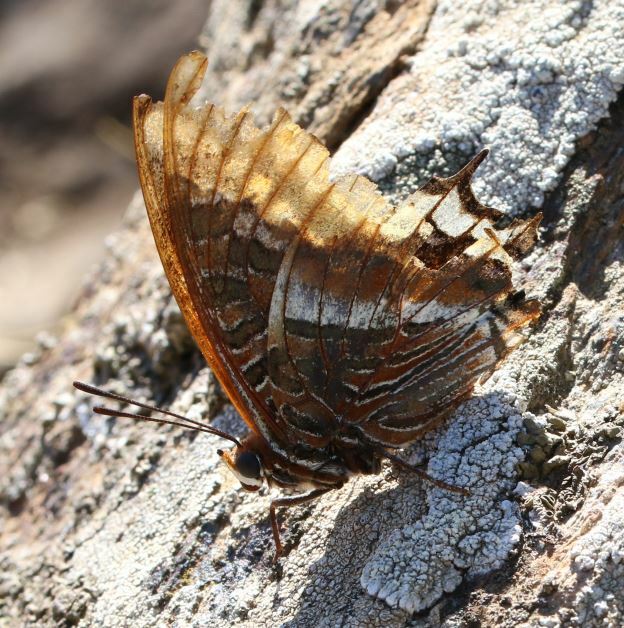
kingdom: Animalia
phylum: Arthropoda
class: Insecta
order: Lepidoptera
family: Nymphalidae
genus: Charaxes
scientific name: Charaxes jasius
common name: Two tailed pasha
